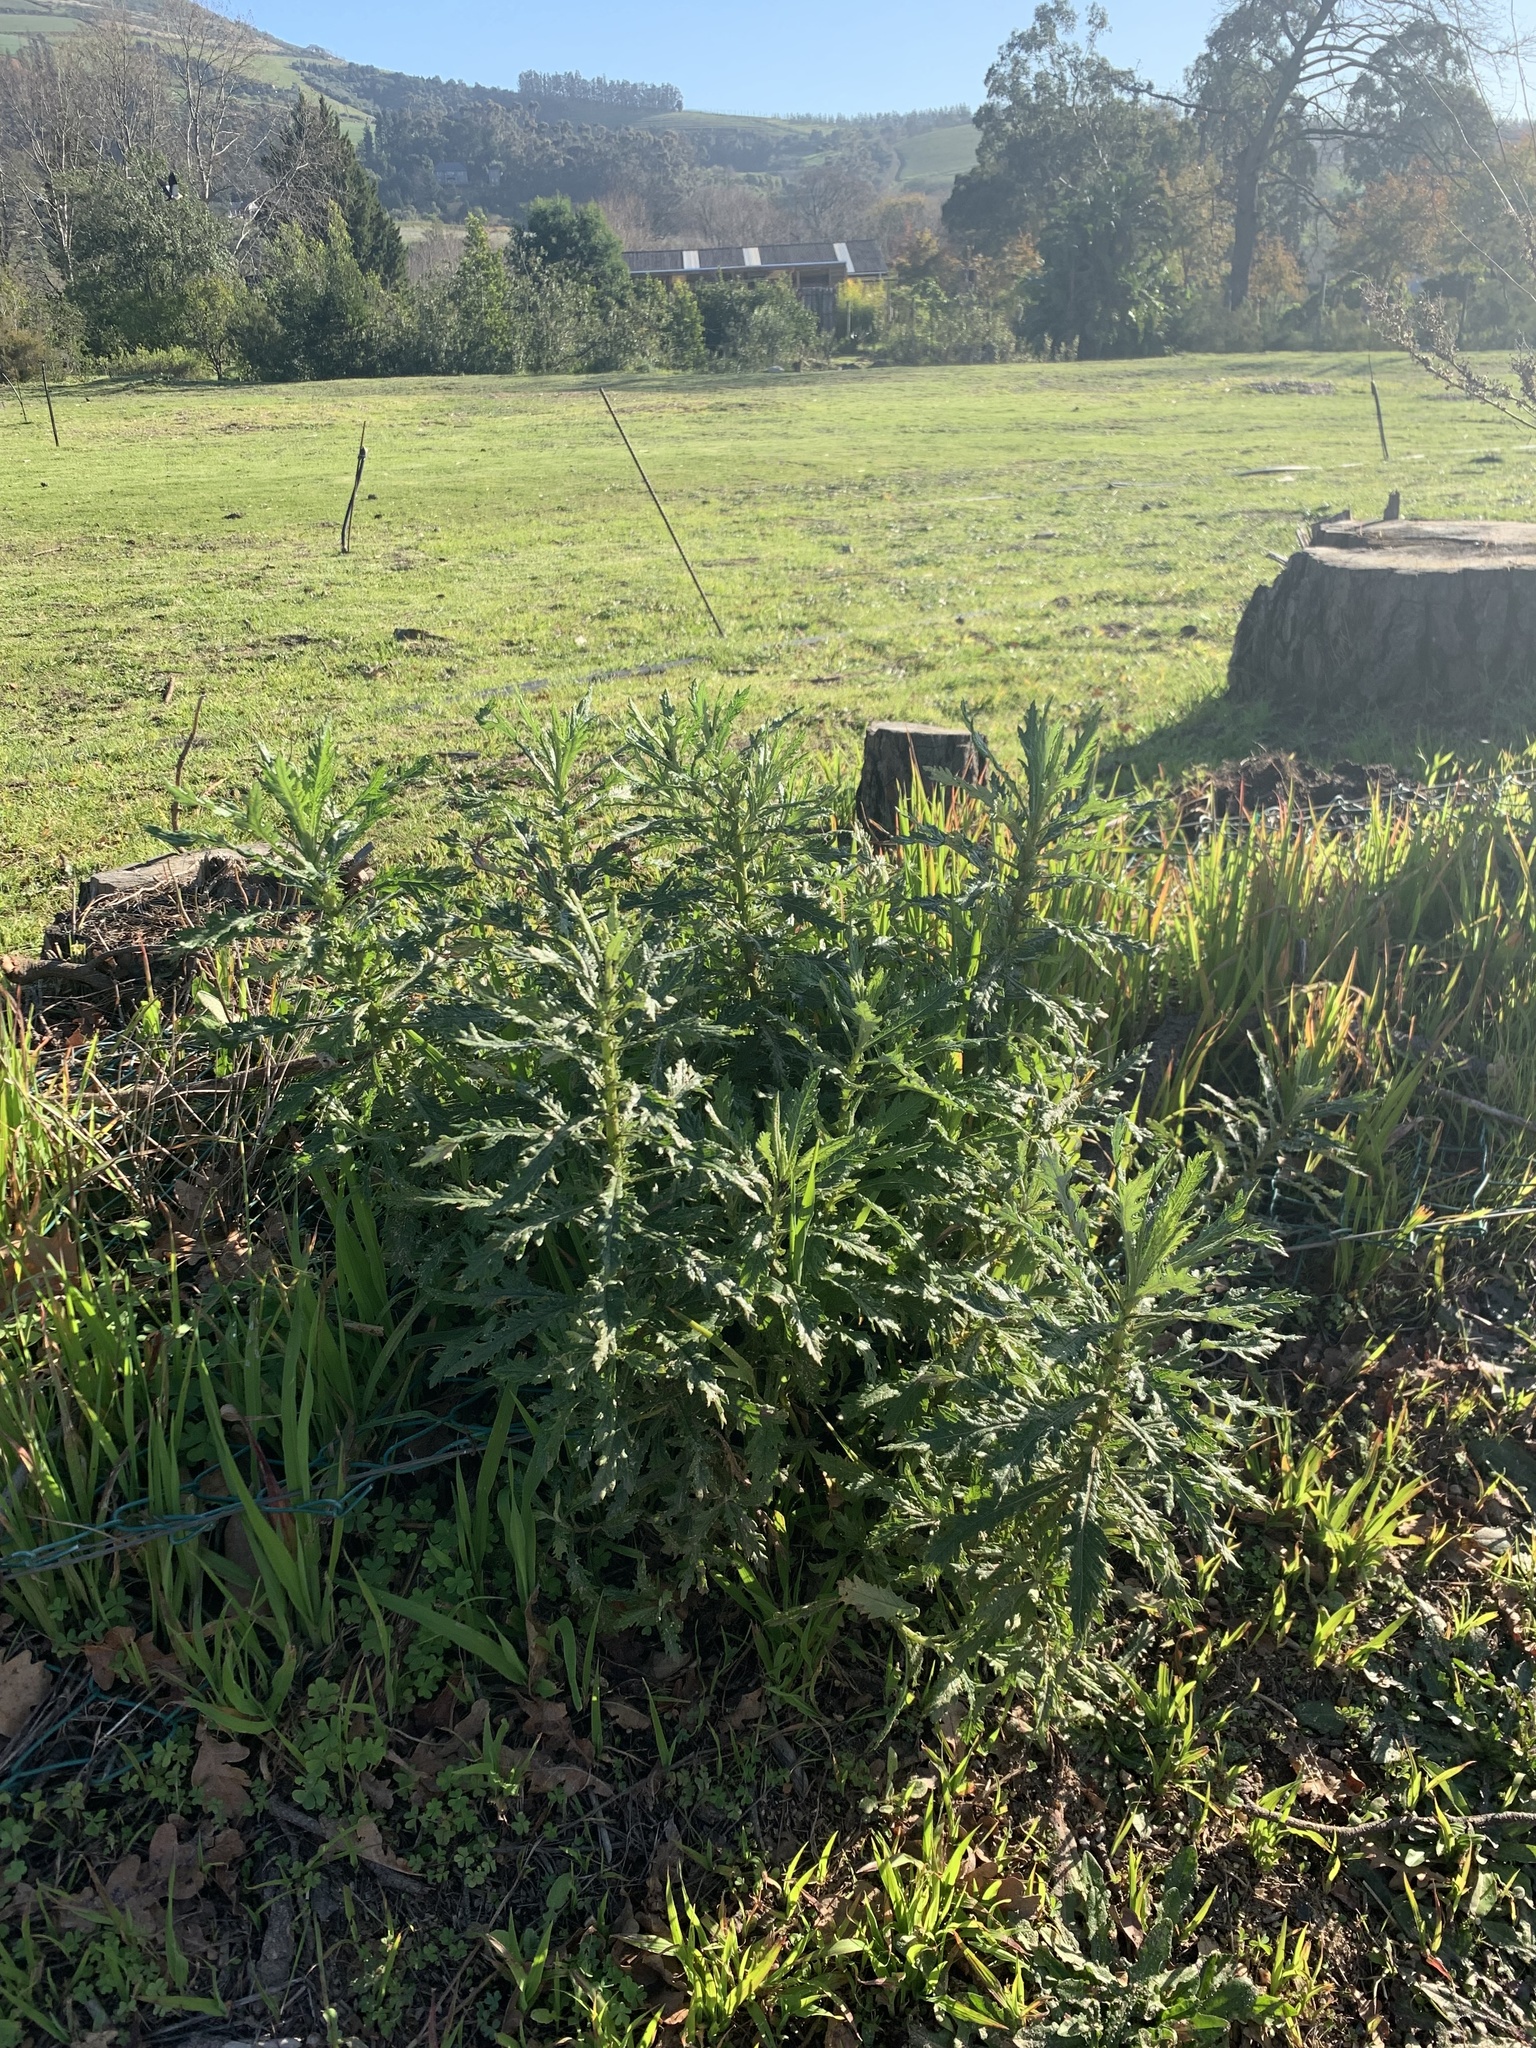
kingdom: Plantae
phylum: Tracheophyta
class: Magnoliopsida
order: Asterales
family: Asteraceae
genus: Senecio
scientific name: Senecio pterophorus
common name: Shoddy ragwort
